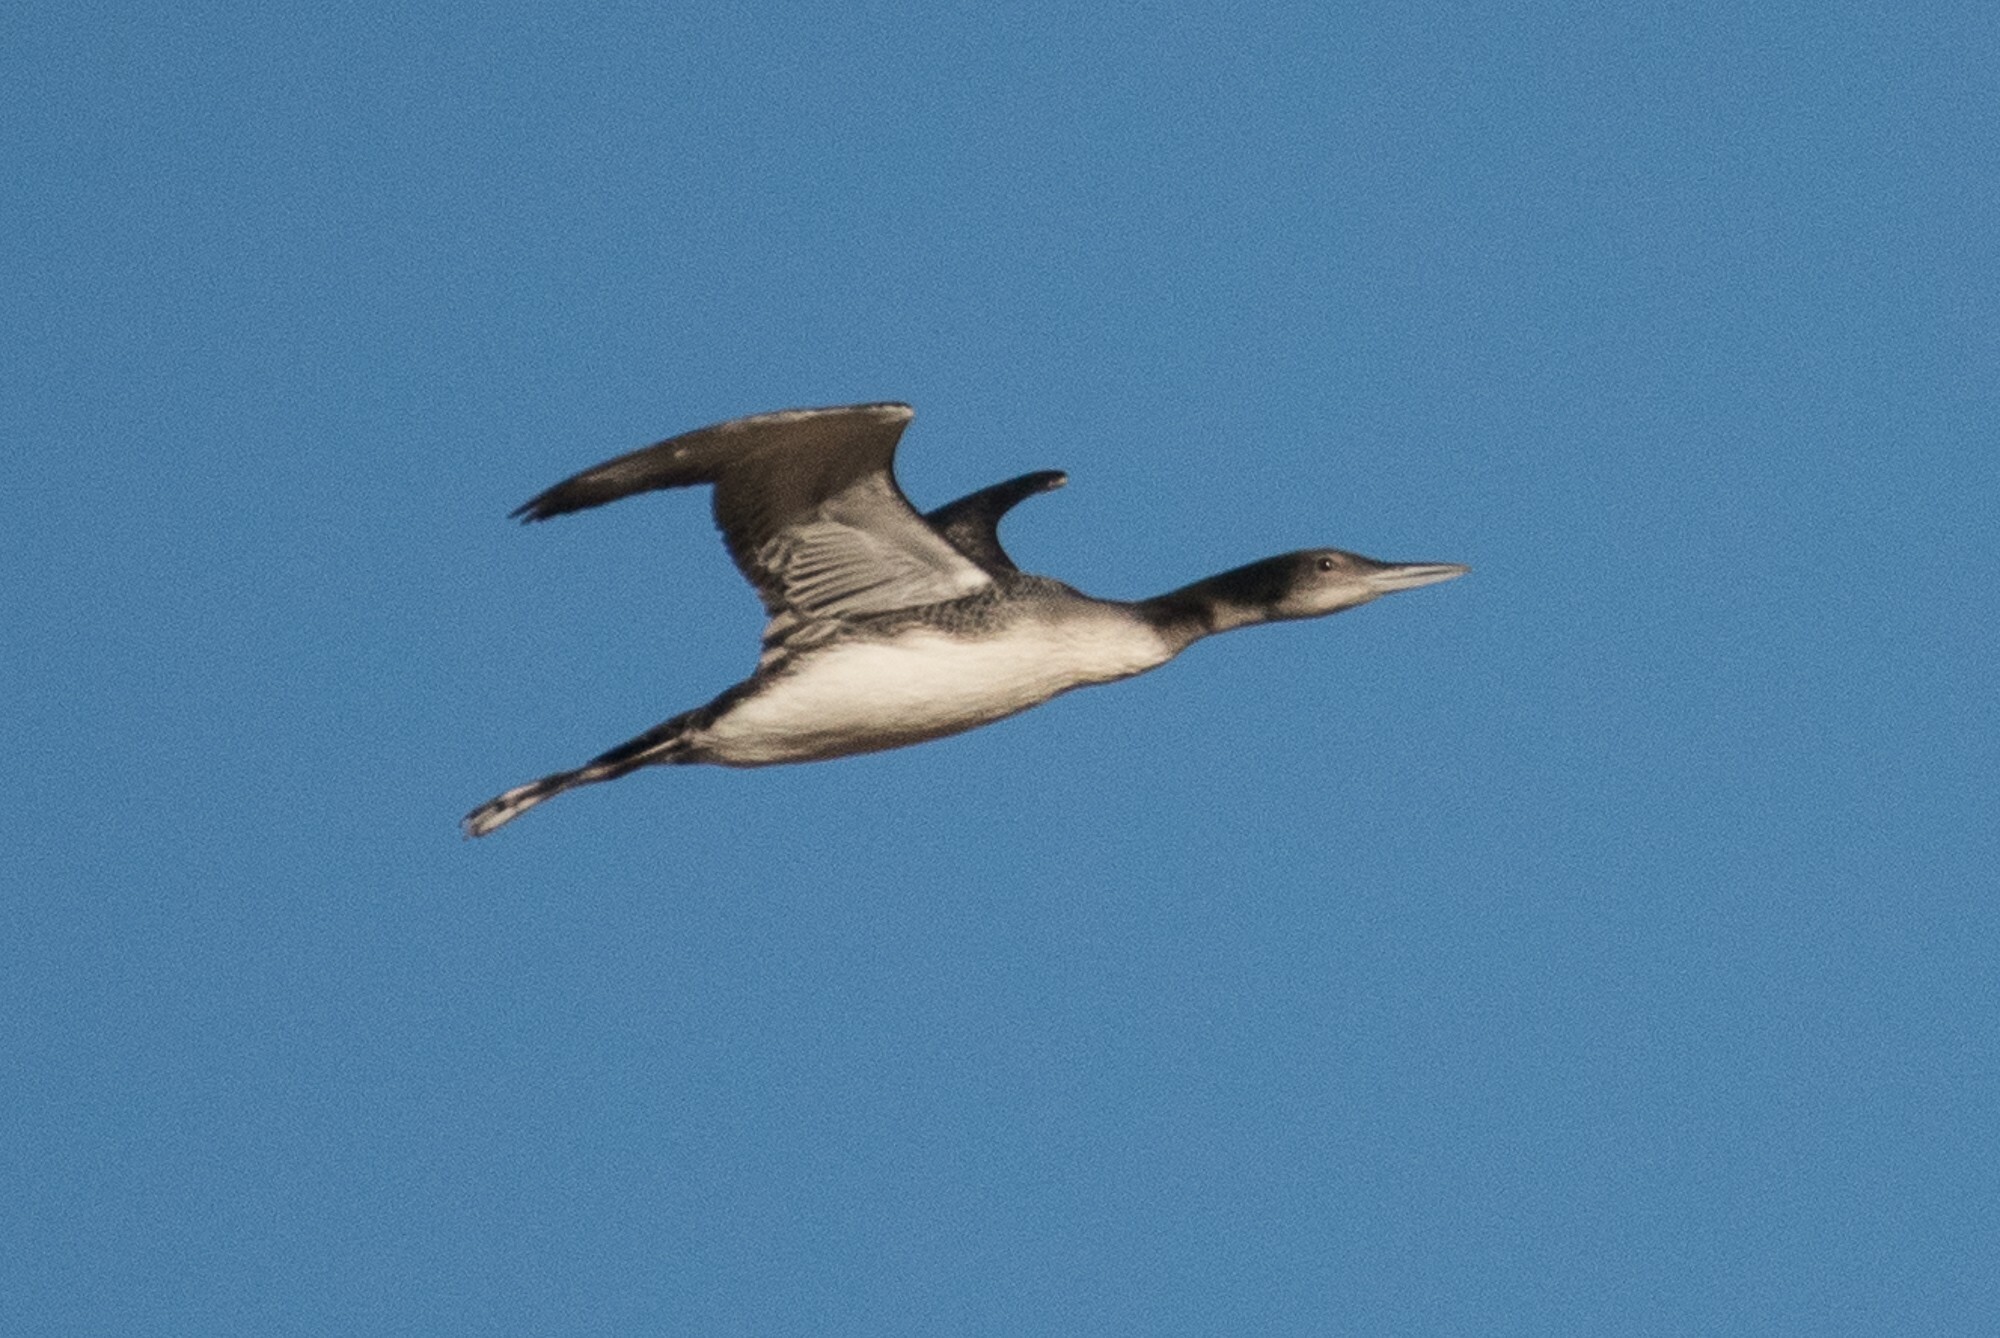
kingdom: Animalia
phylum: Chordata
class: Aves
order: Gaviiformes
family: Gaviidae
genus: Gavia
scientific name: Gavia immer
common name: Common loon
